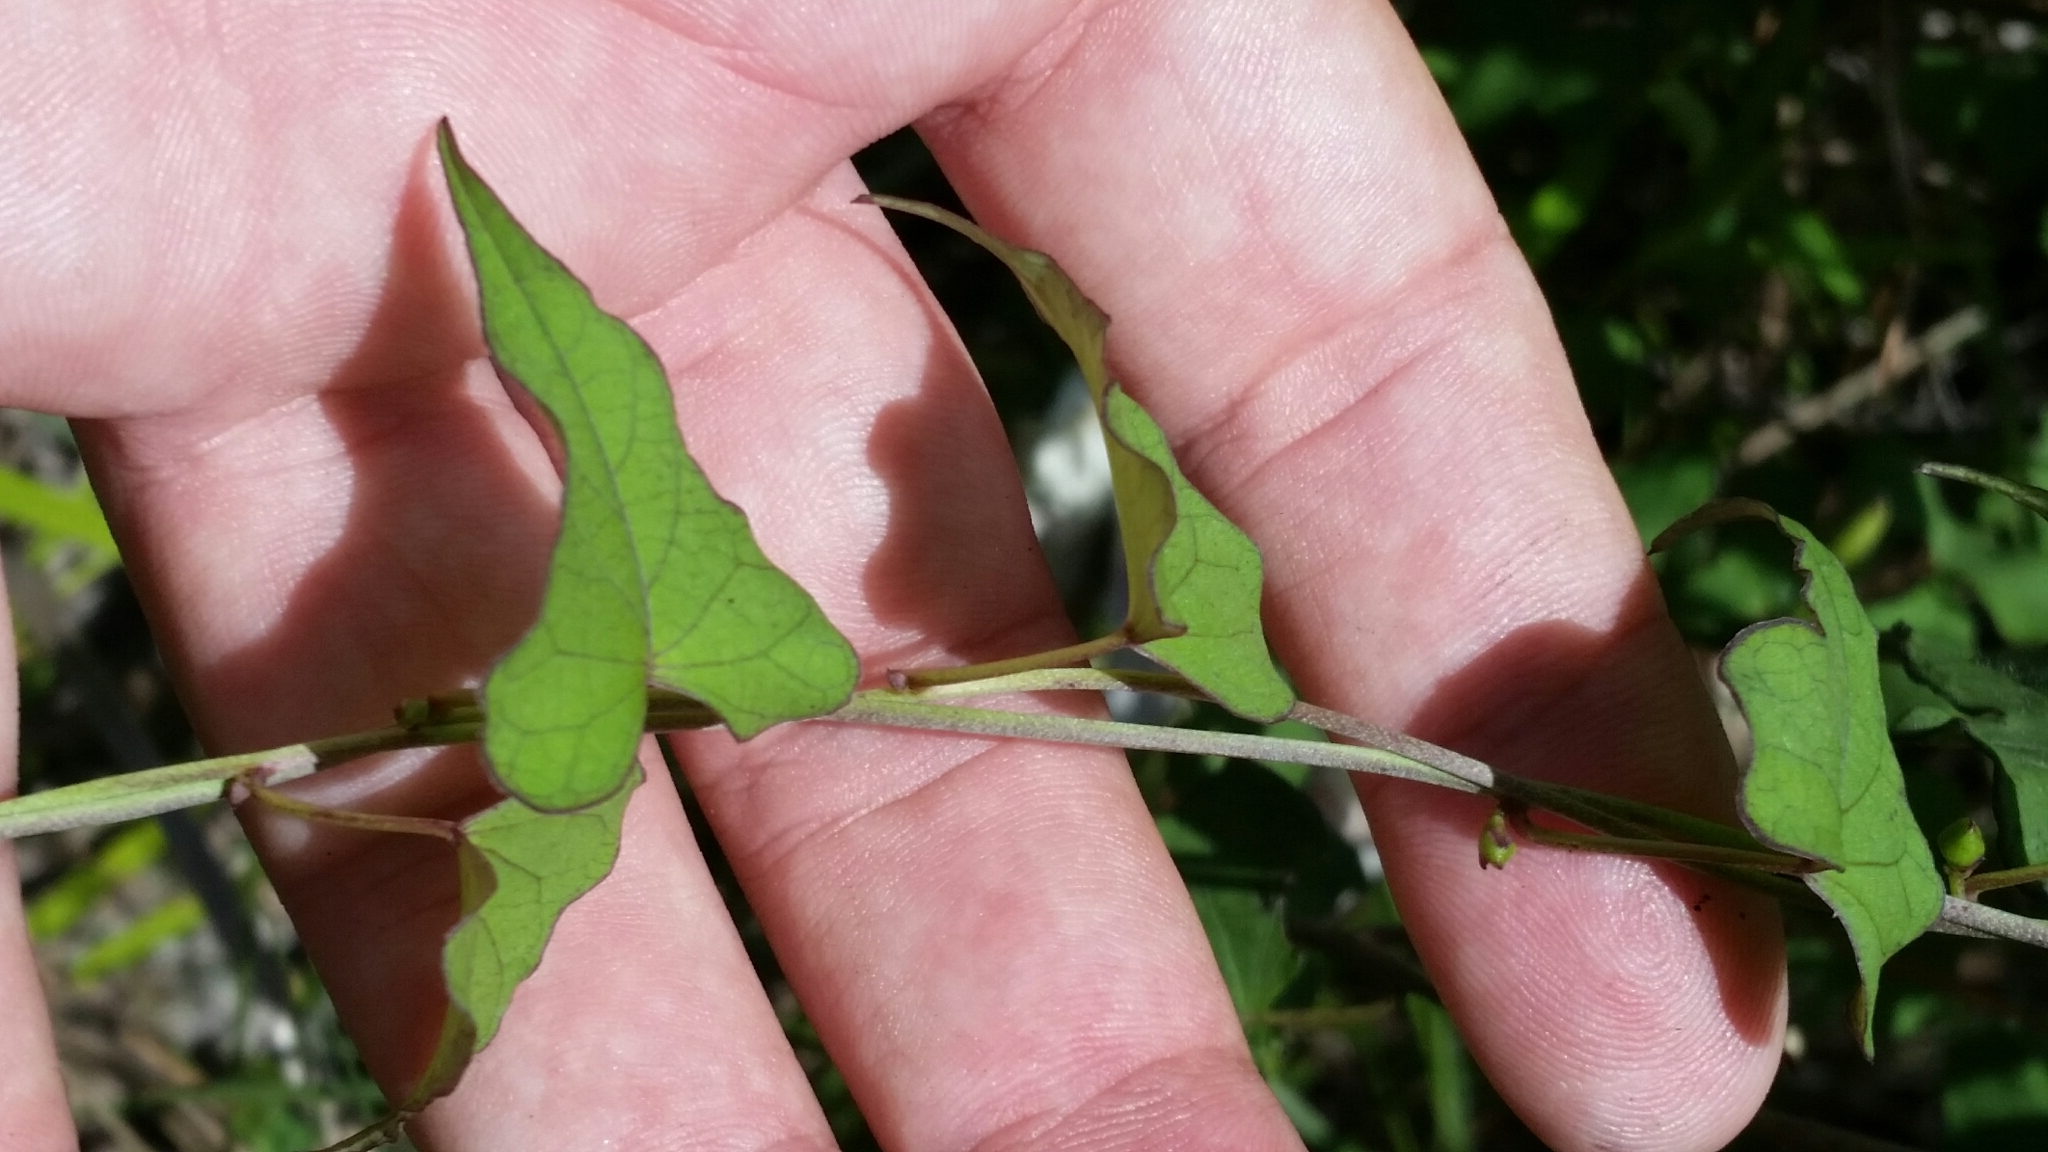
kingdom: Plantae
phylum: Tracheophyta
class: Magnoliopsida
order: Solanales
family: Convolvulaceae
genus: Ipomoea
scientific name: Ipomoea pandurata
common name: Man-of-the-earth
